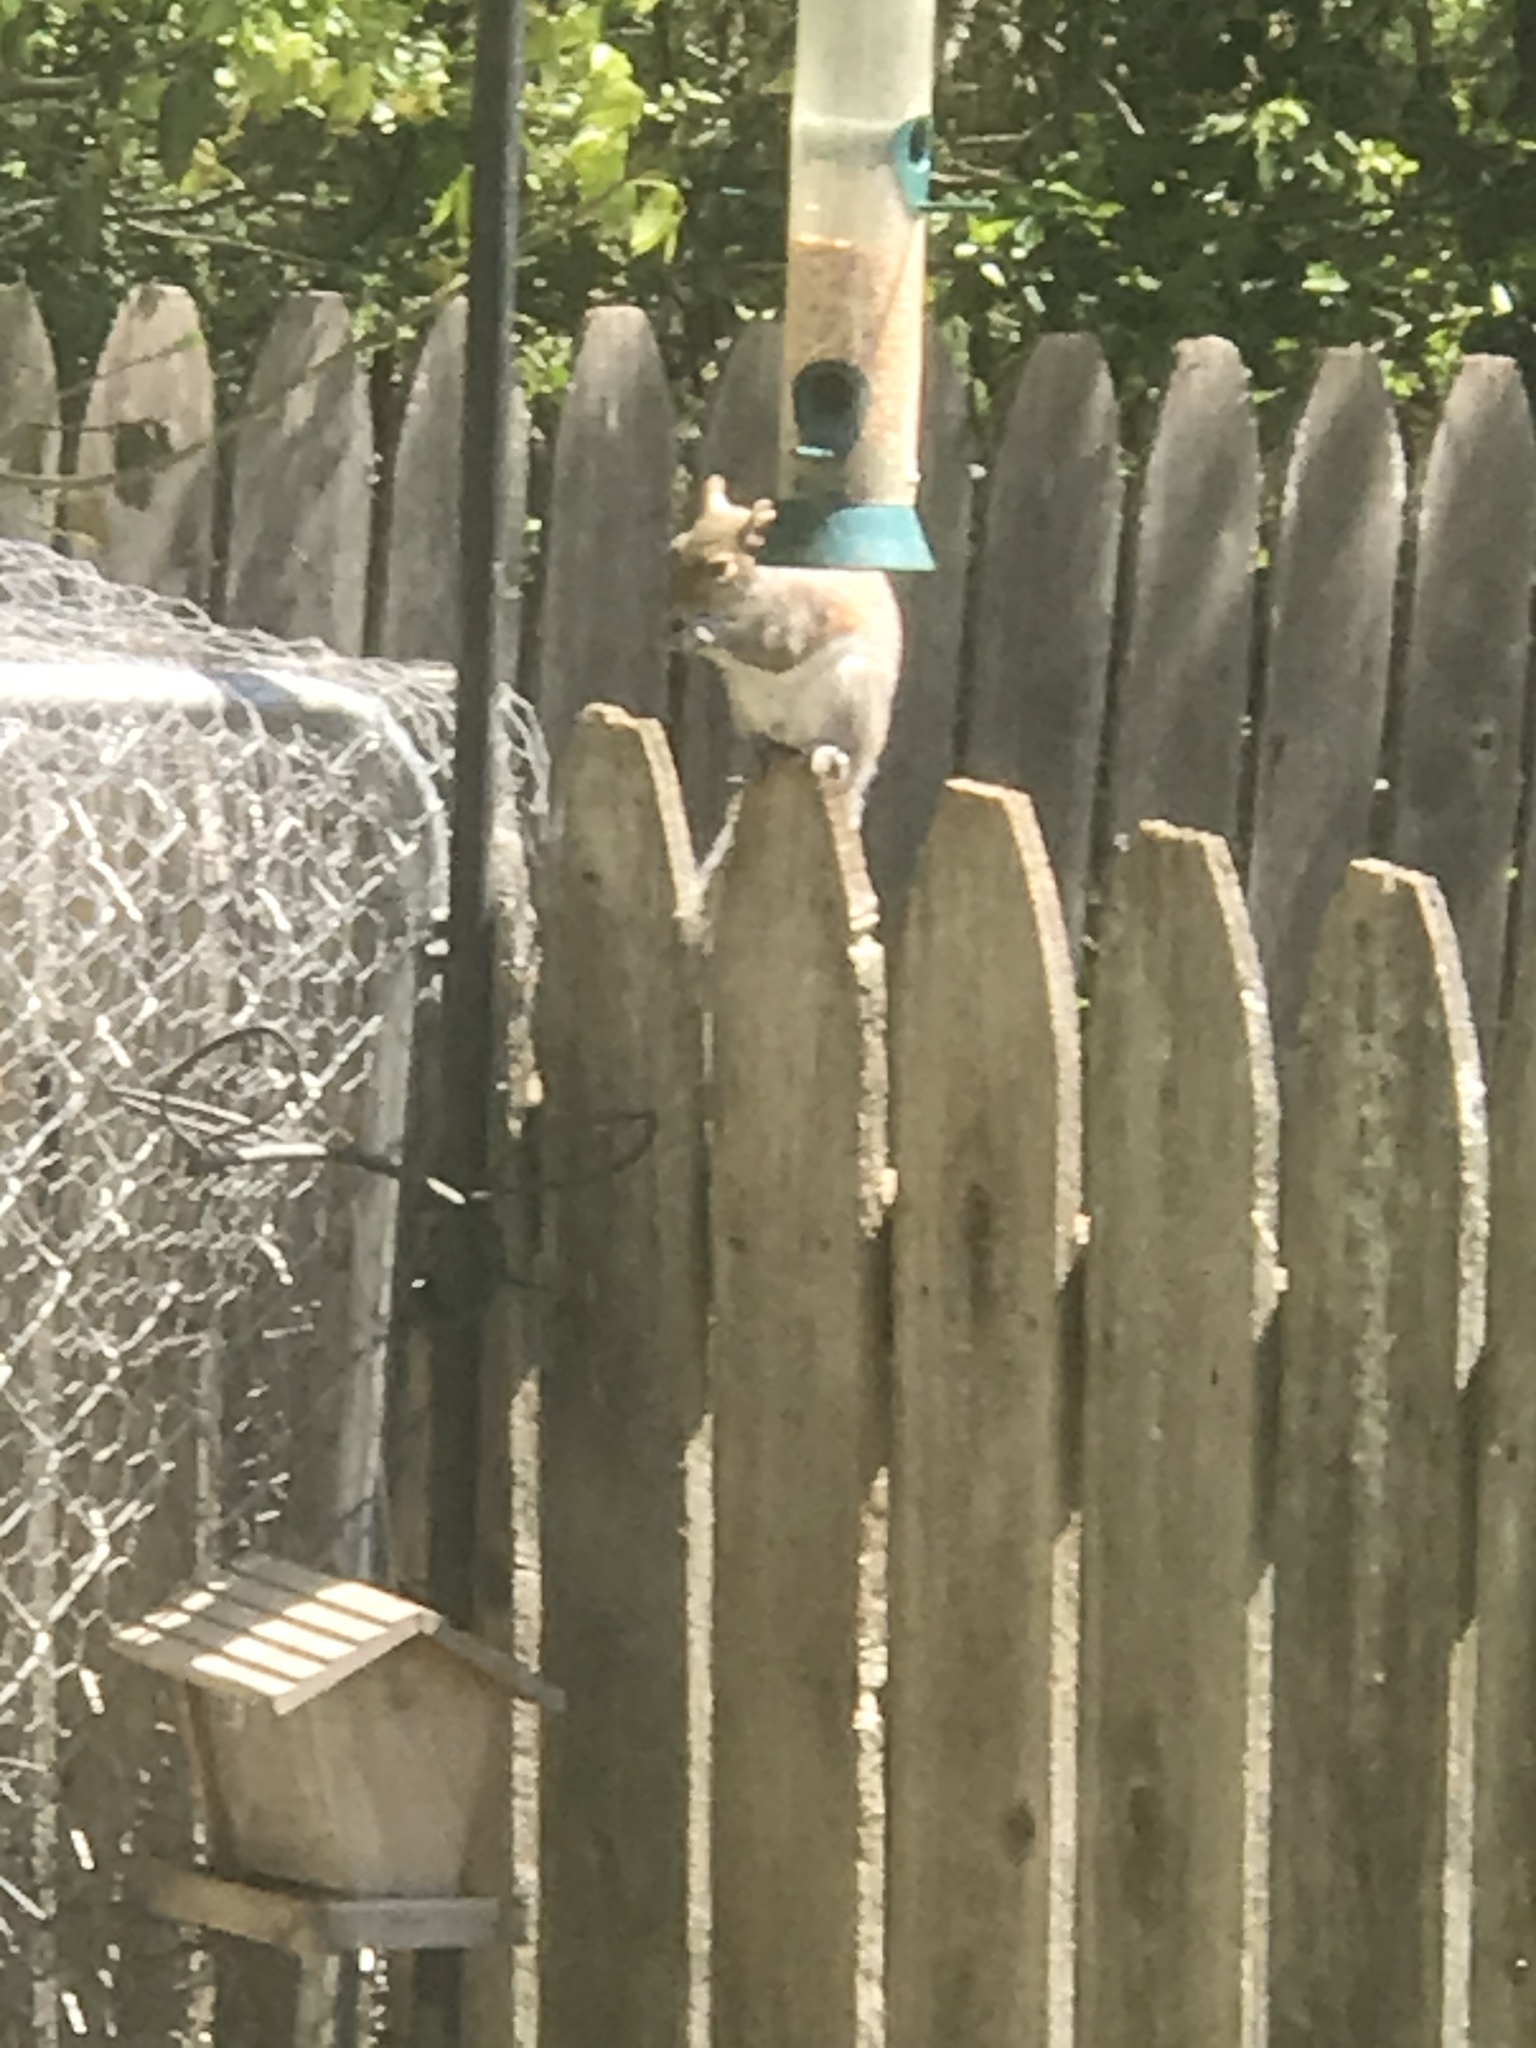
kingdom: Animalia
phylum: Chordata
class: Mammalia
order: Rodentia
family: Sciuridae
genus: Sciurus
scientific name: Sciurus carolinensis
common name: Eastern gray squirrel
